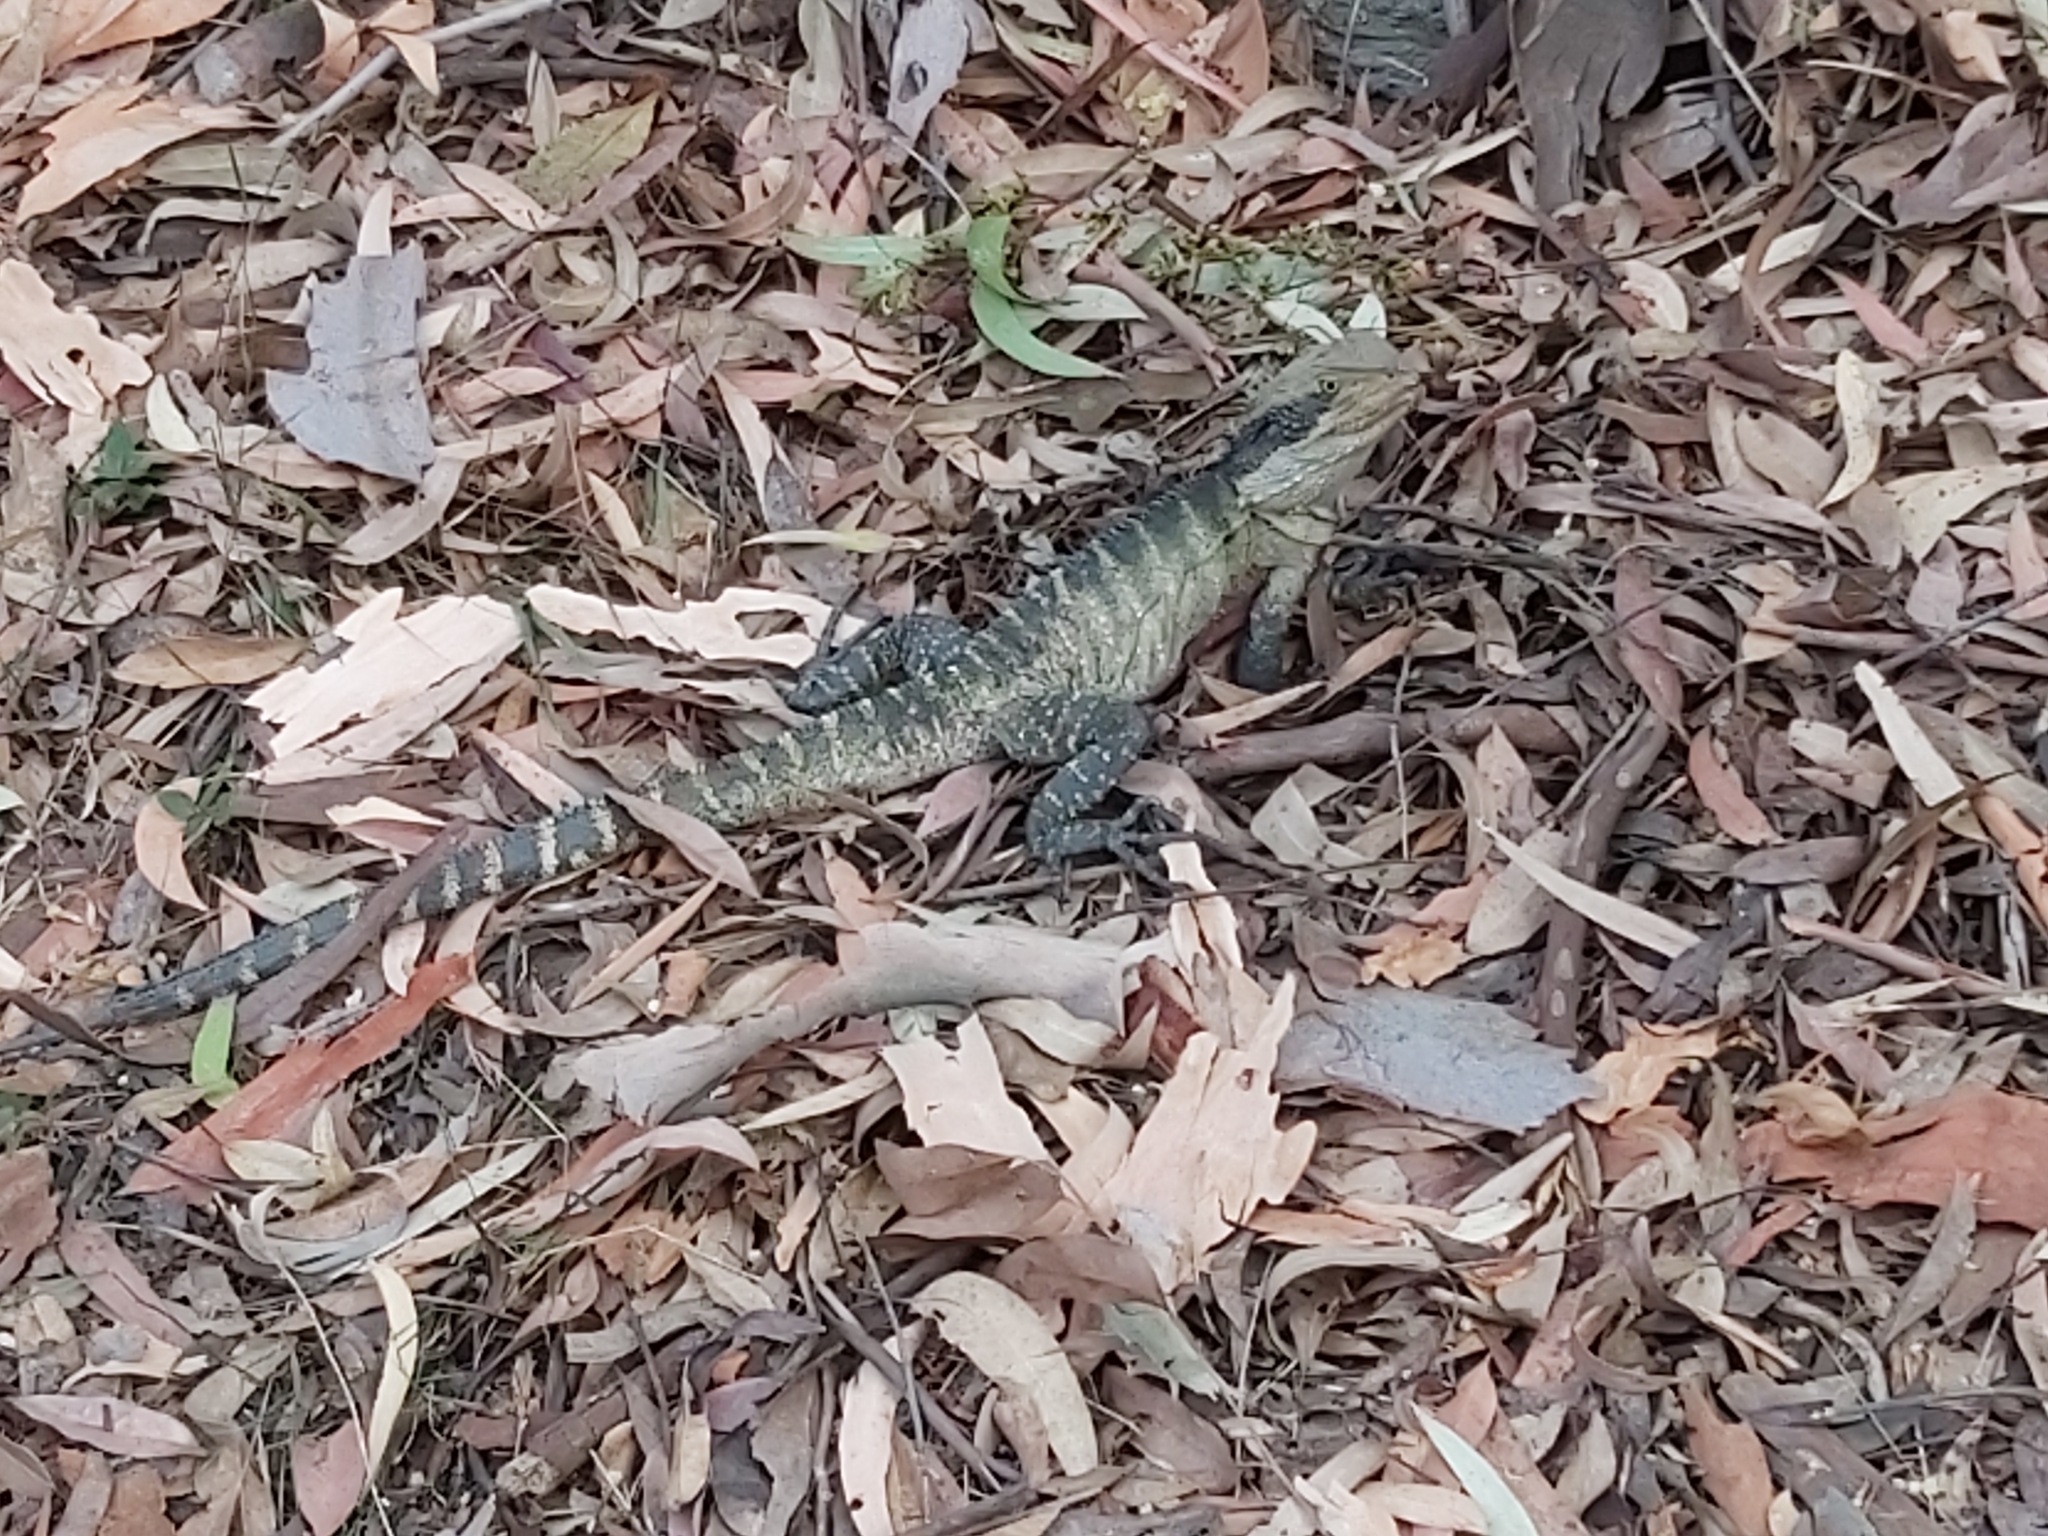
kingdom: Animalia
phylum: Chordata
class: Squamata
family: Agamidae
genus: Intellagama
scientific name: Intellagama lesueurii
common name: Eastern water dragon
